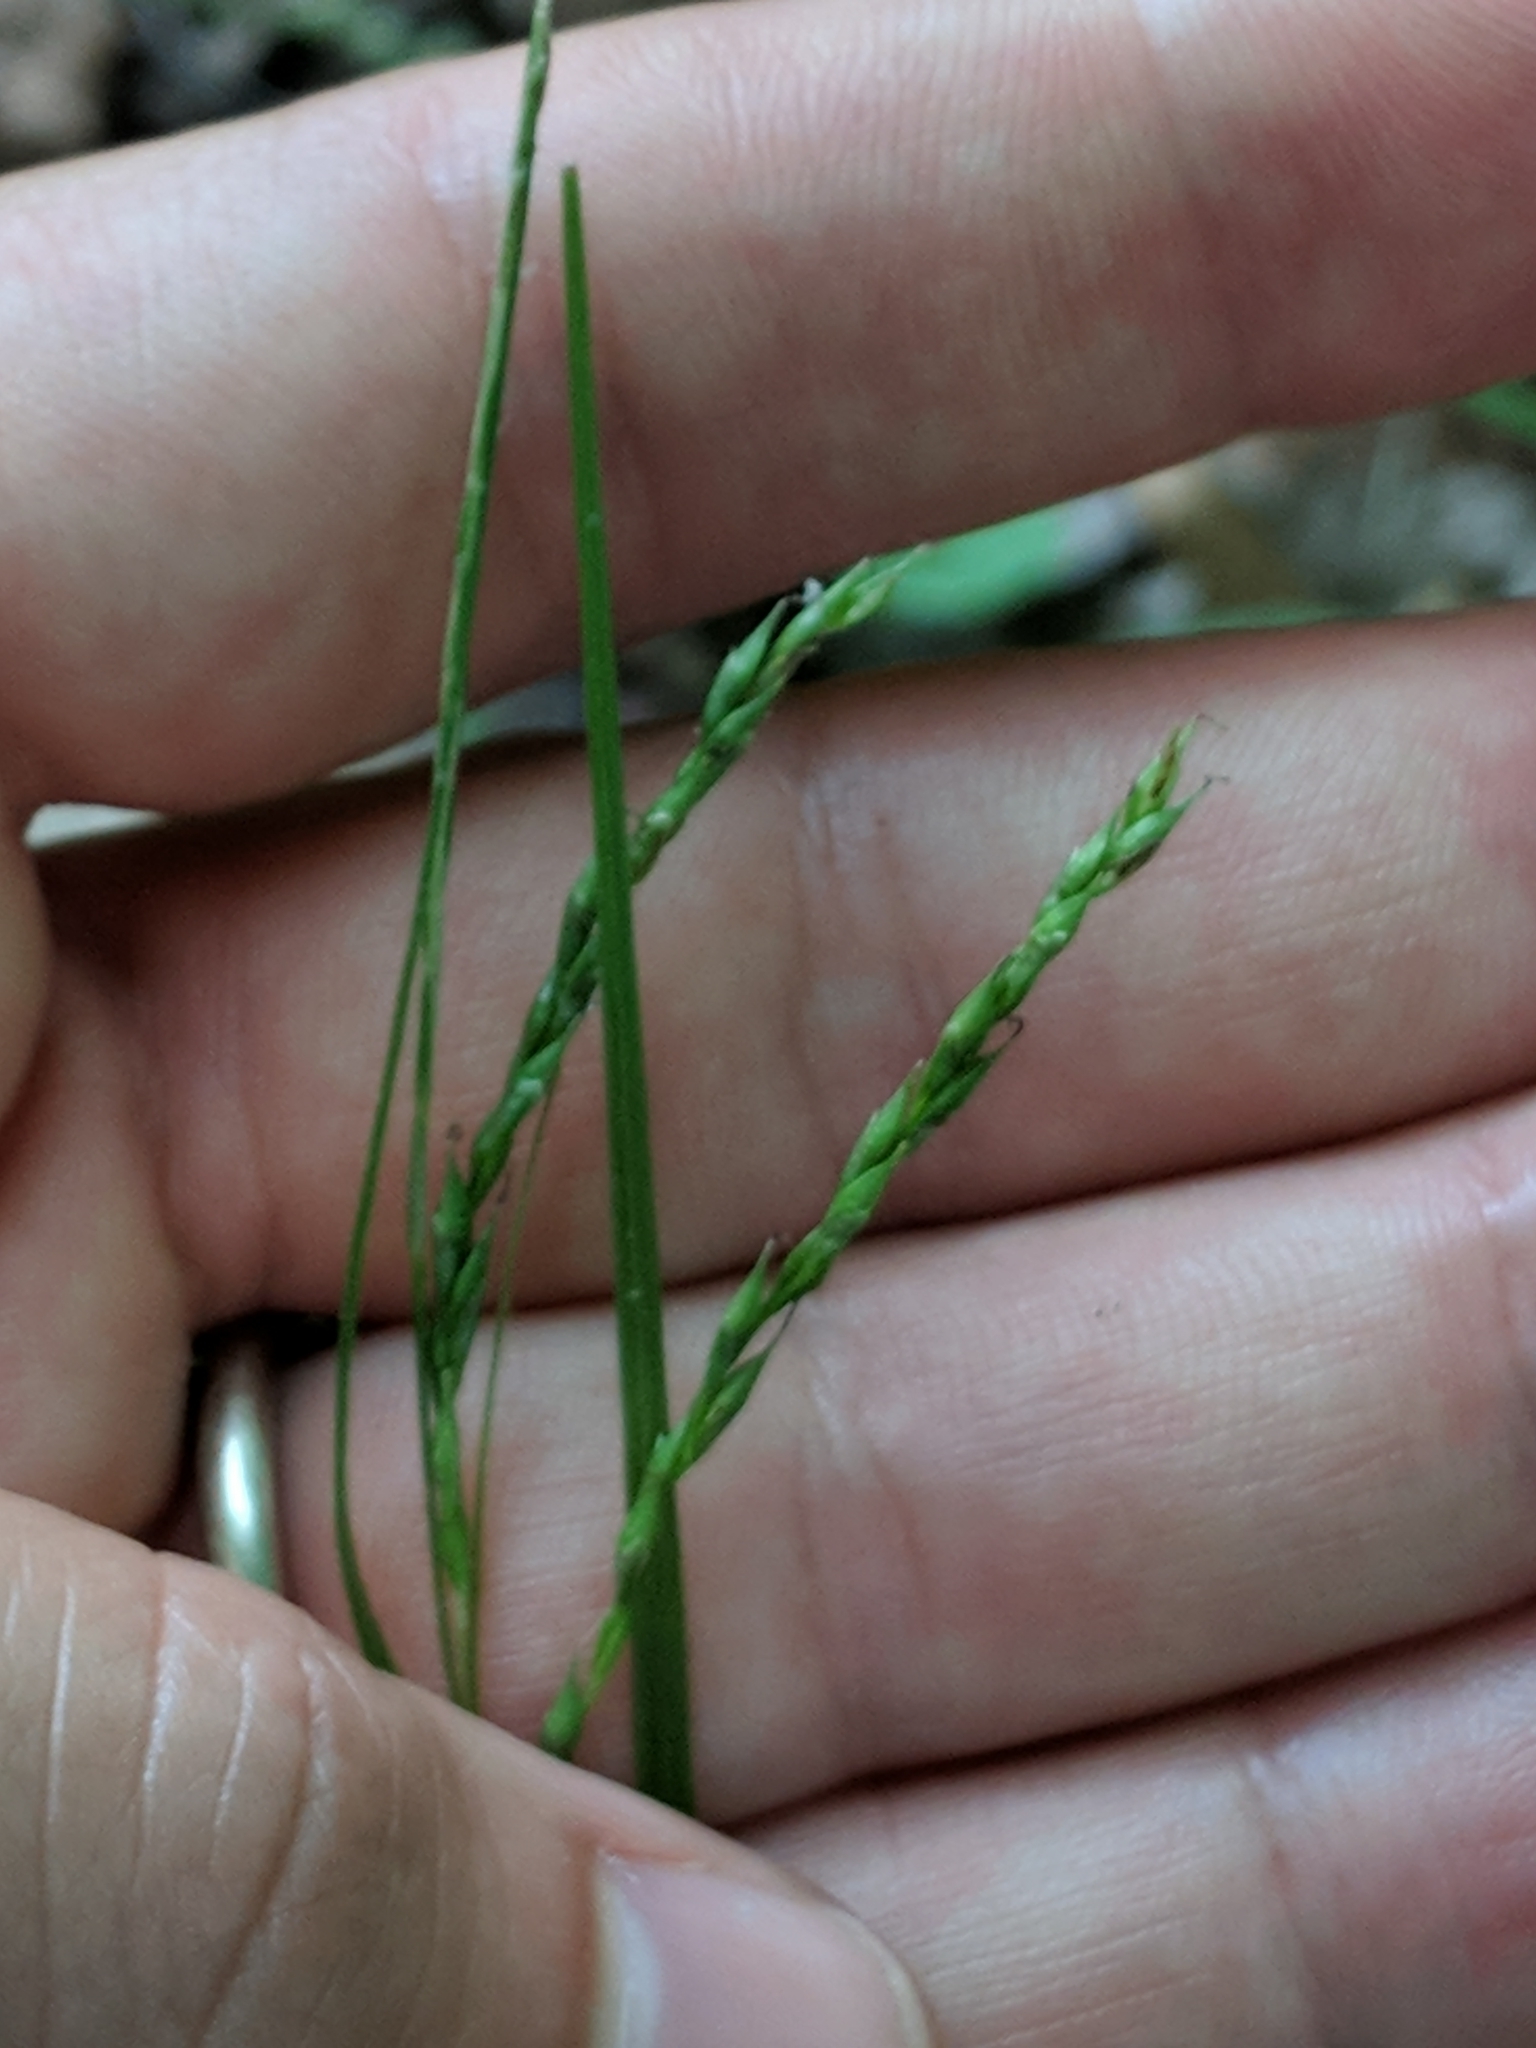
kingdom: Plantae
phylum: Tracheophyta
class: Liliopsida
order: Poales
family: Cyperaceae
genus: Carex
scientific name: Carex debilis
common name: White-edge sedge
